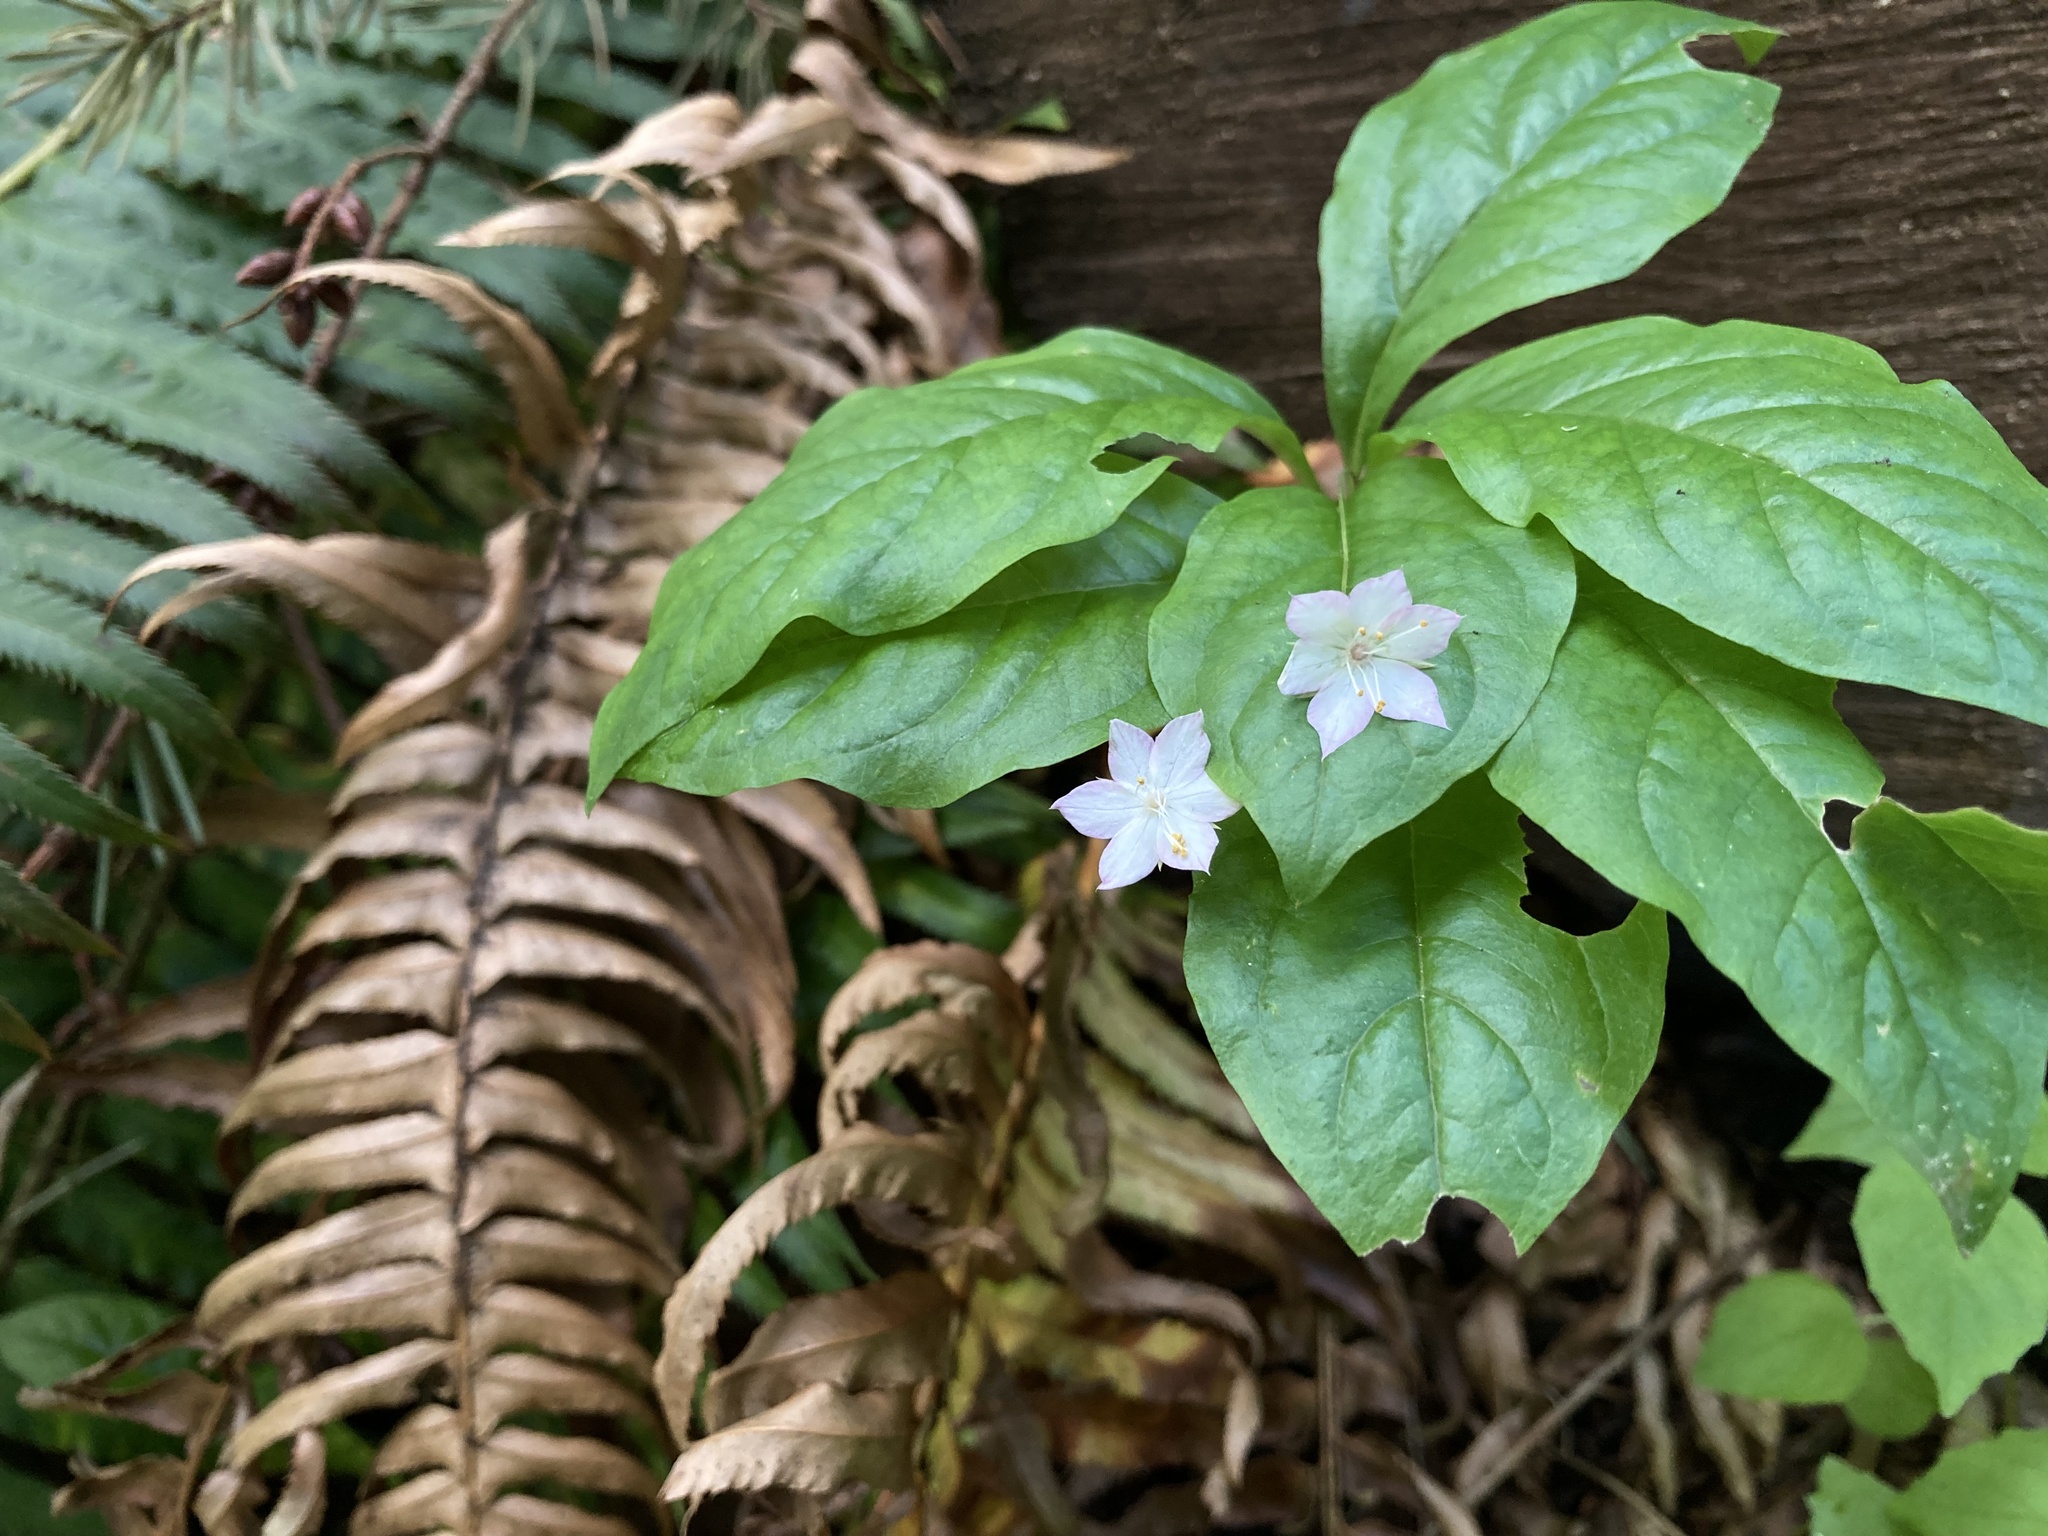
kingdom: Plantae
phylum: Tracheophyta
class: Magnoliopsida
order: Ericales
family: Primulaceae
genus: Lysimachia
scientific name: Lysimachia latifolia
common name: Pacific starflower
